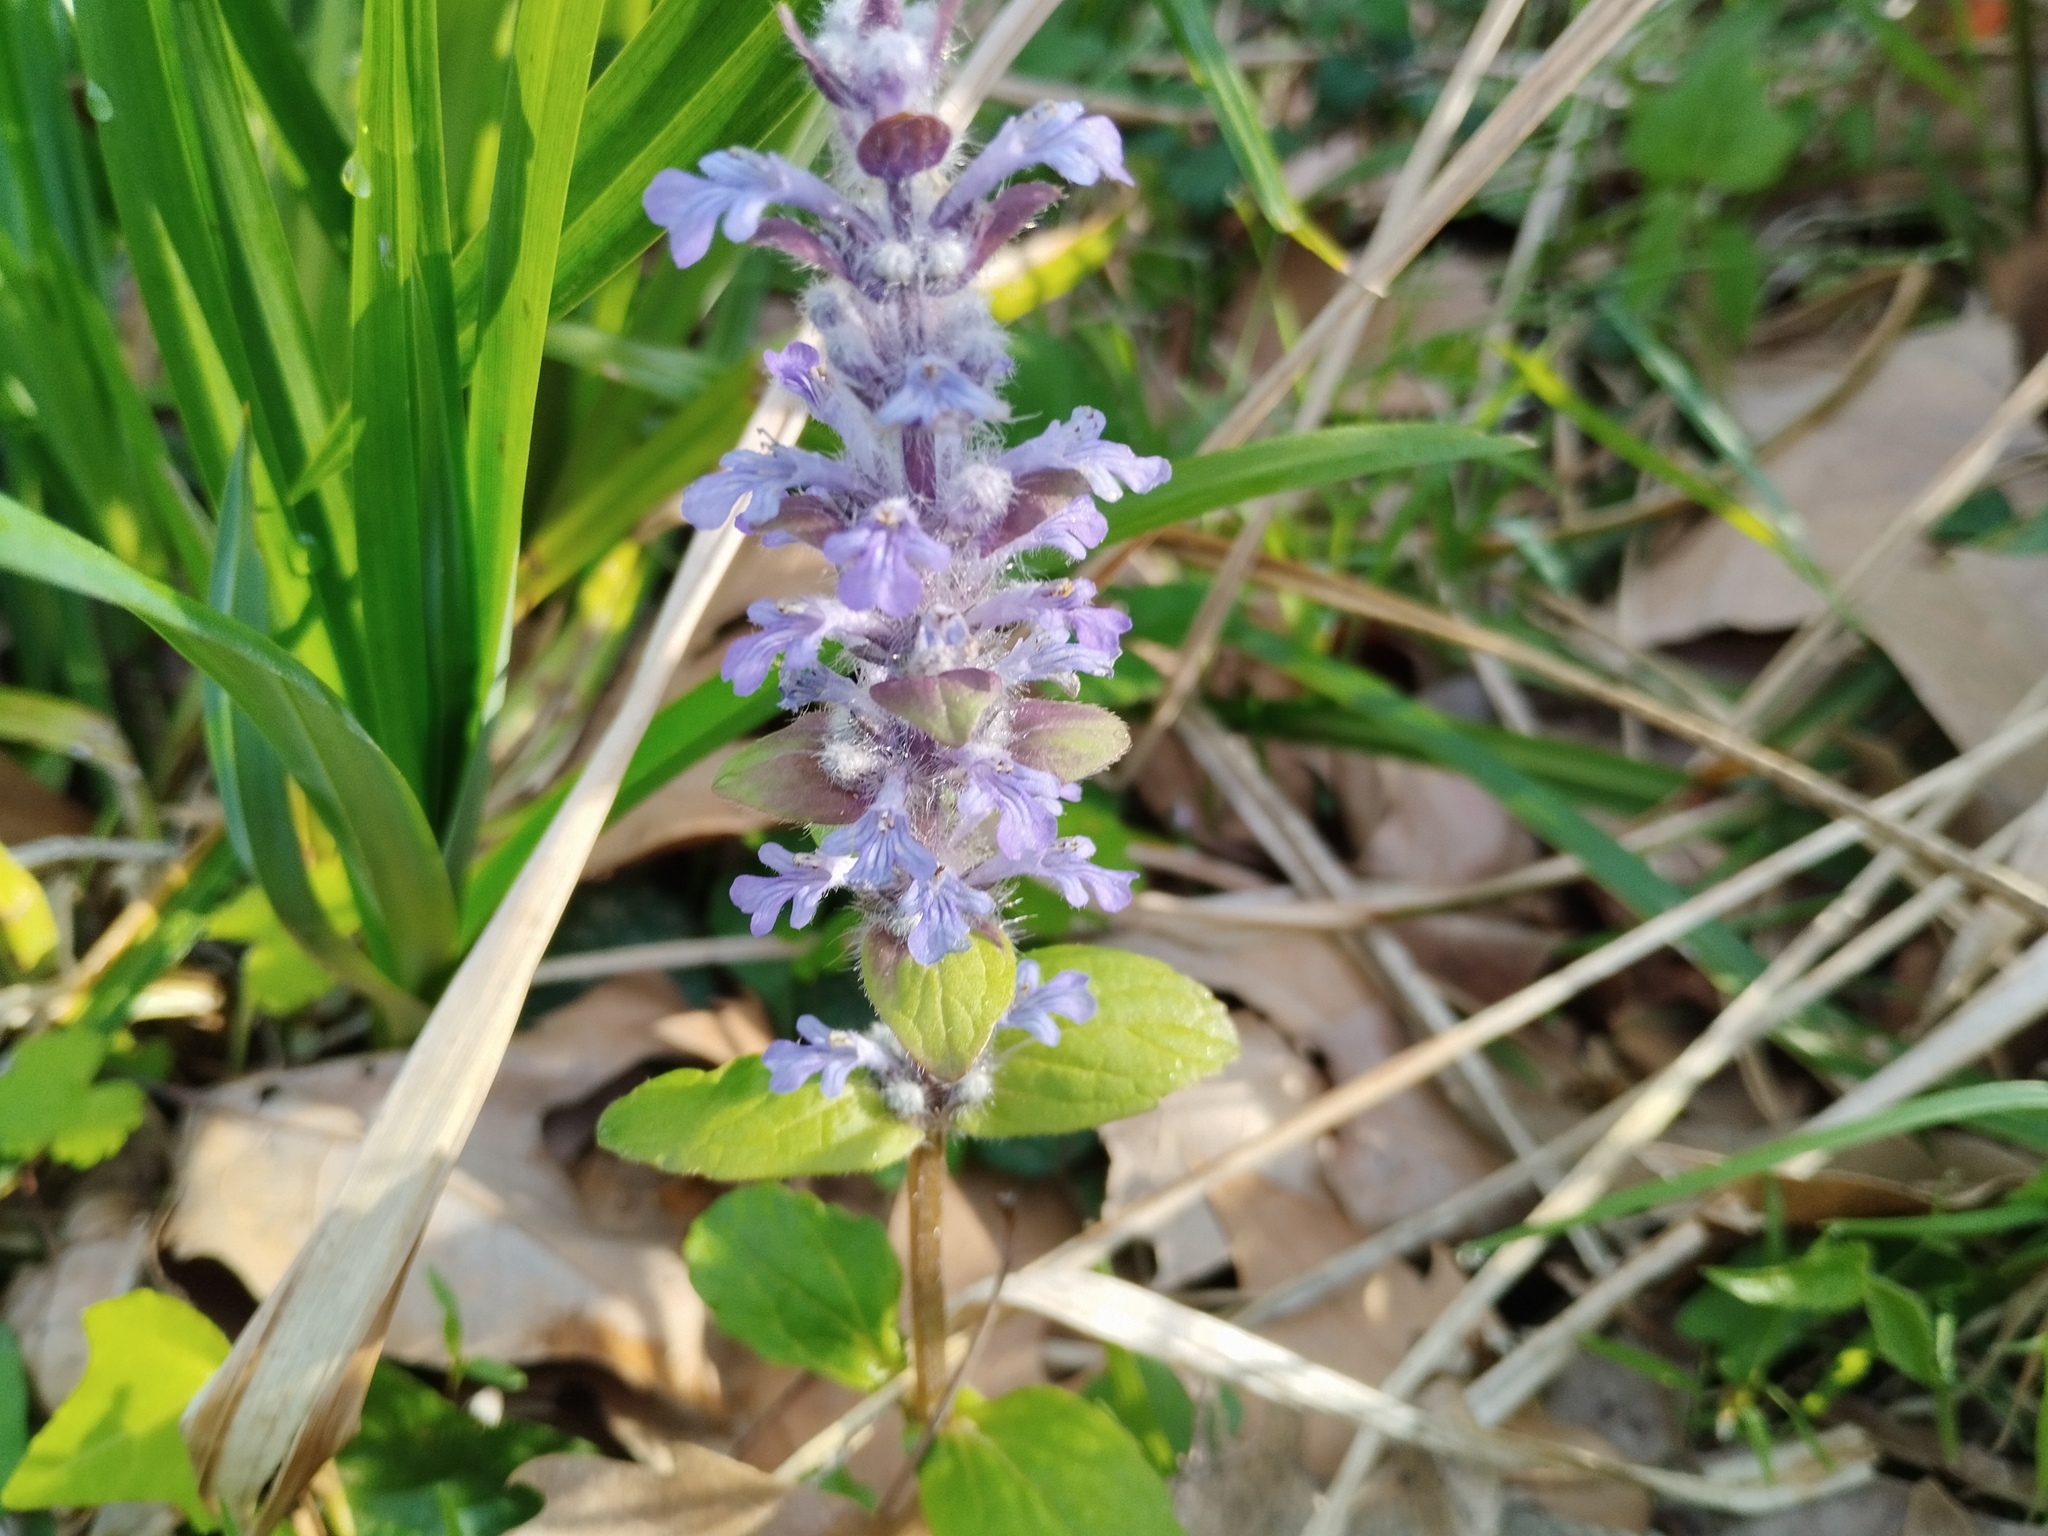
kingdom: Plantae
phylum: Tracheophyta
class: Magnoliopsida
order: Lamiales
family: Lamiaceae
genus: Ajuga
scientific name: Ajuga reptans
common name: Bugle
